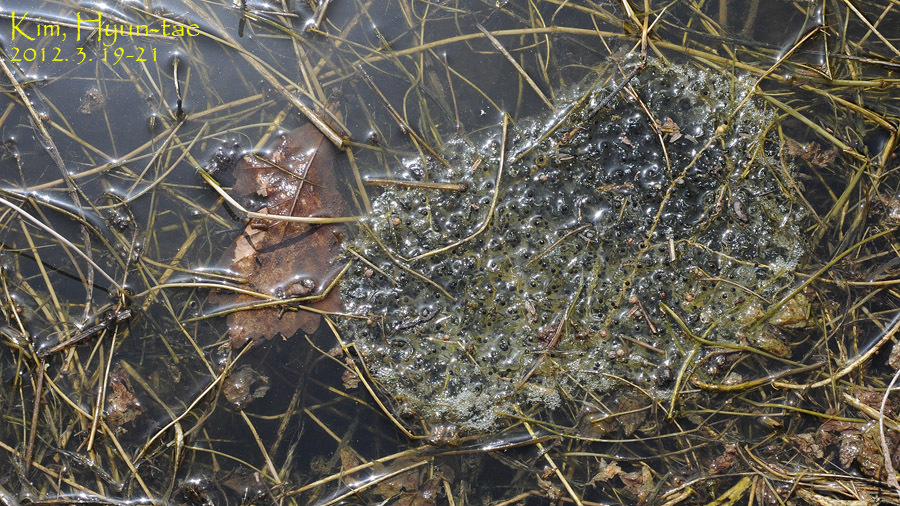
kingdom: Animalia
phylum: Chordata
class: Amphibia
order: Anura
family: Ranidae
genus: Rana
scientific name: Rana uenoi
